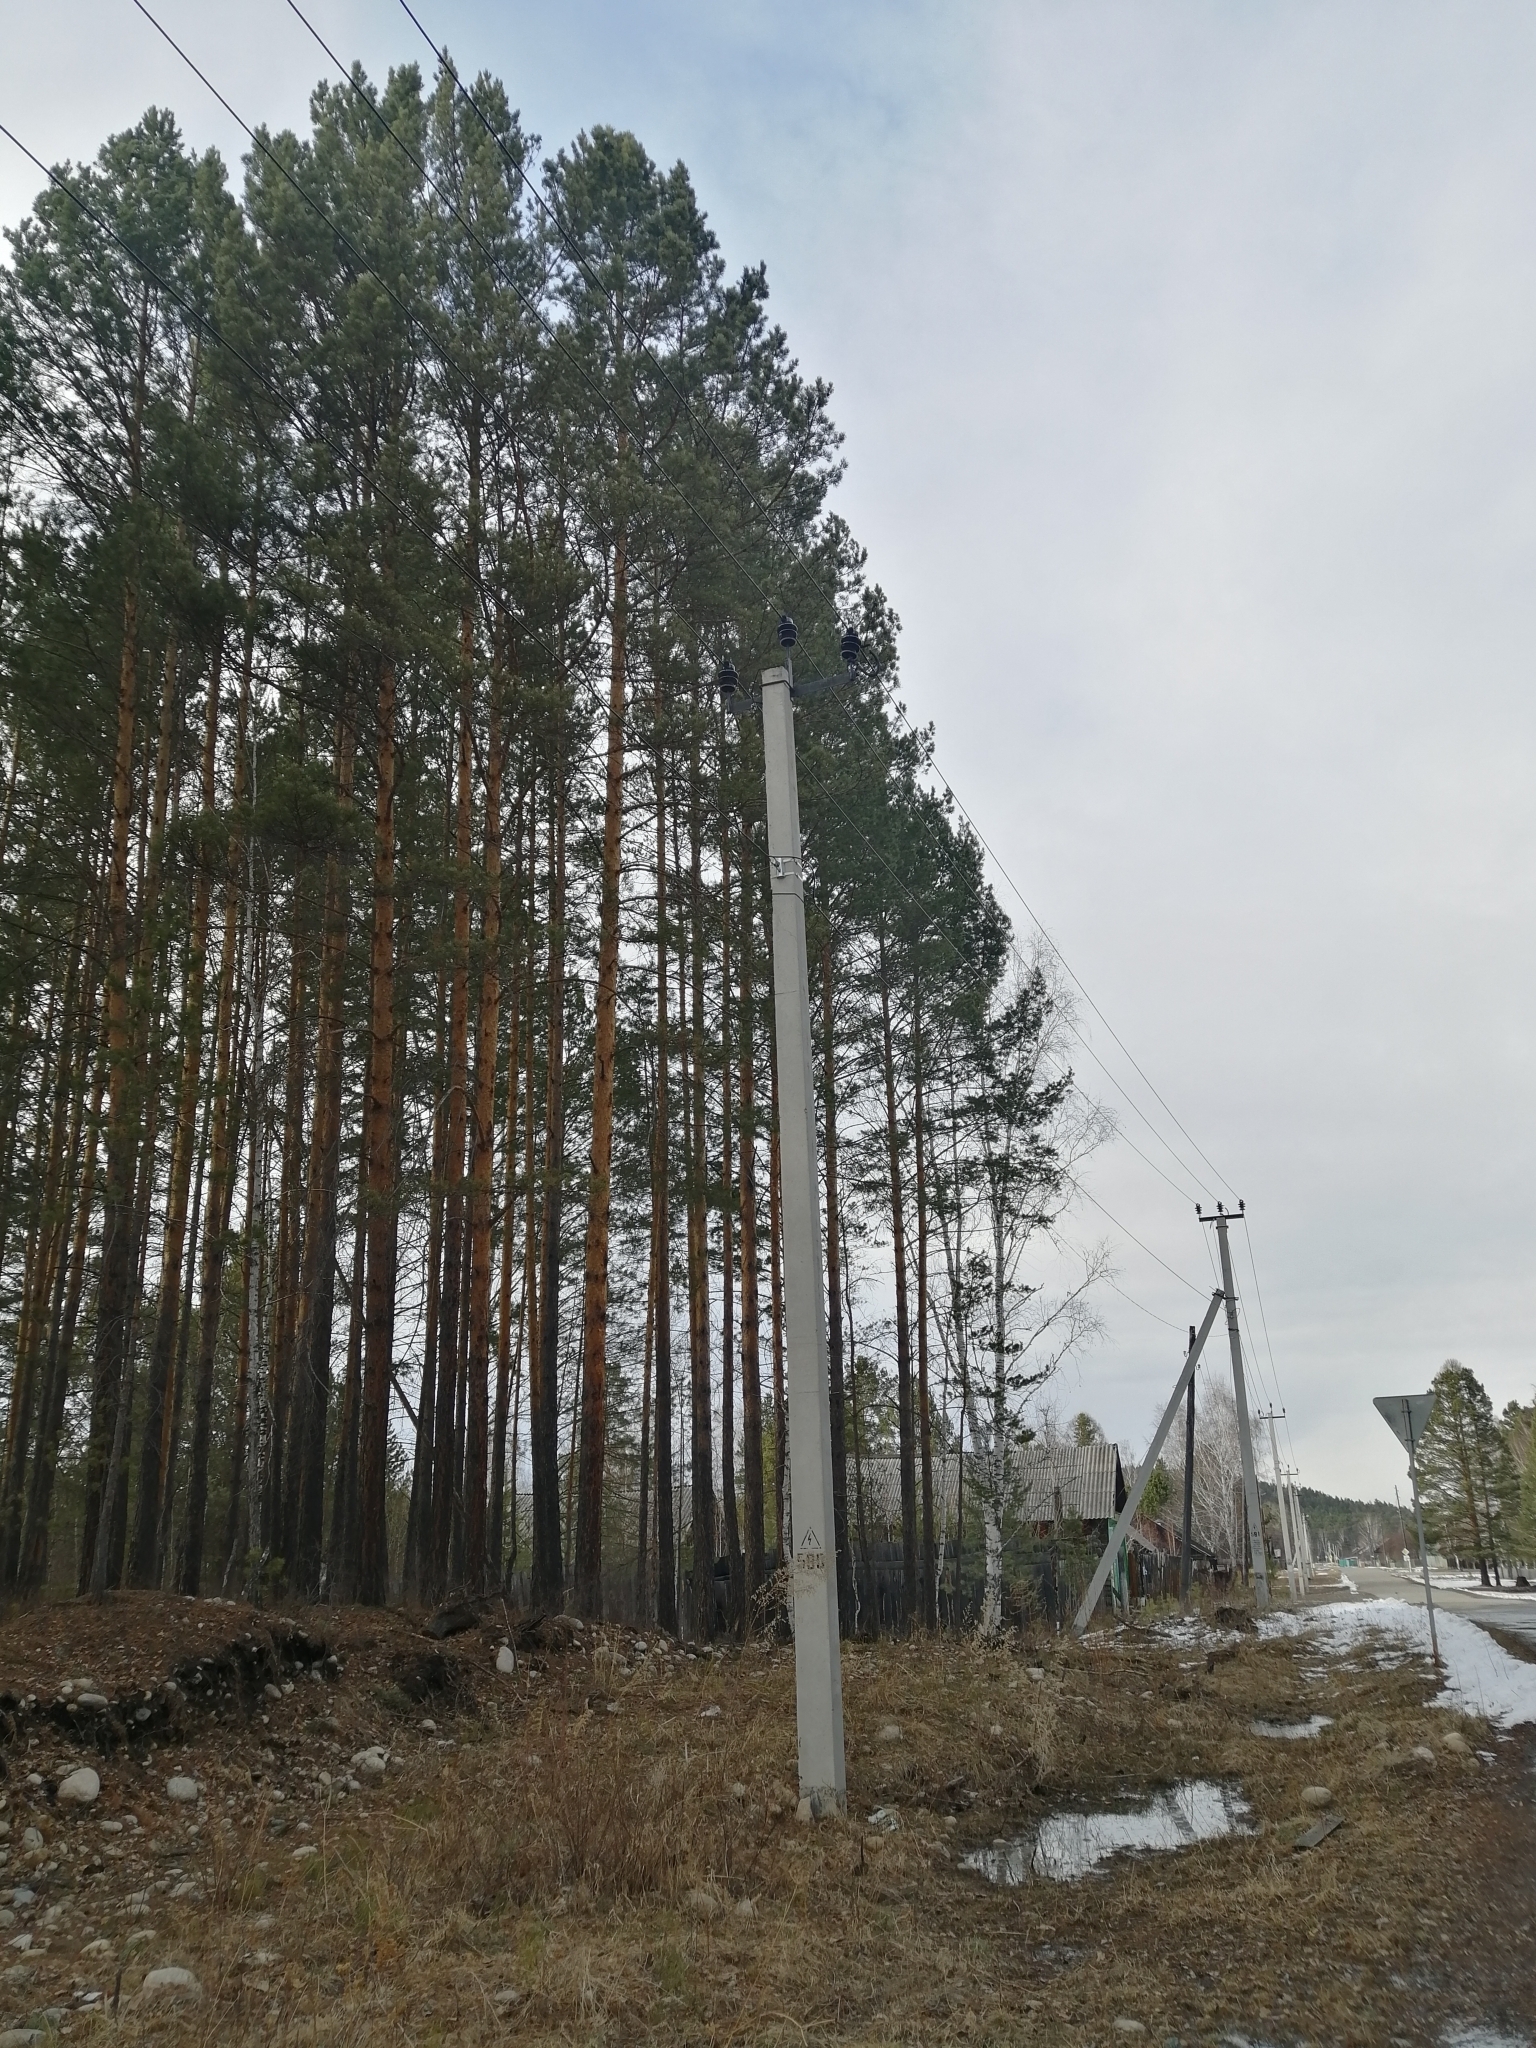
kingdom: Plantae
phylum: Tracheophyta
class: Pinopsida
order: Pinales
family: Pinaceae
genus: Pinus
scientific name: Pinus sylvestris
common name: Scots pine
